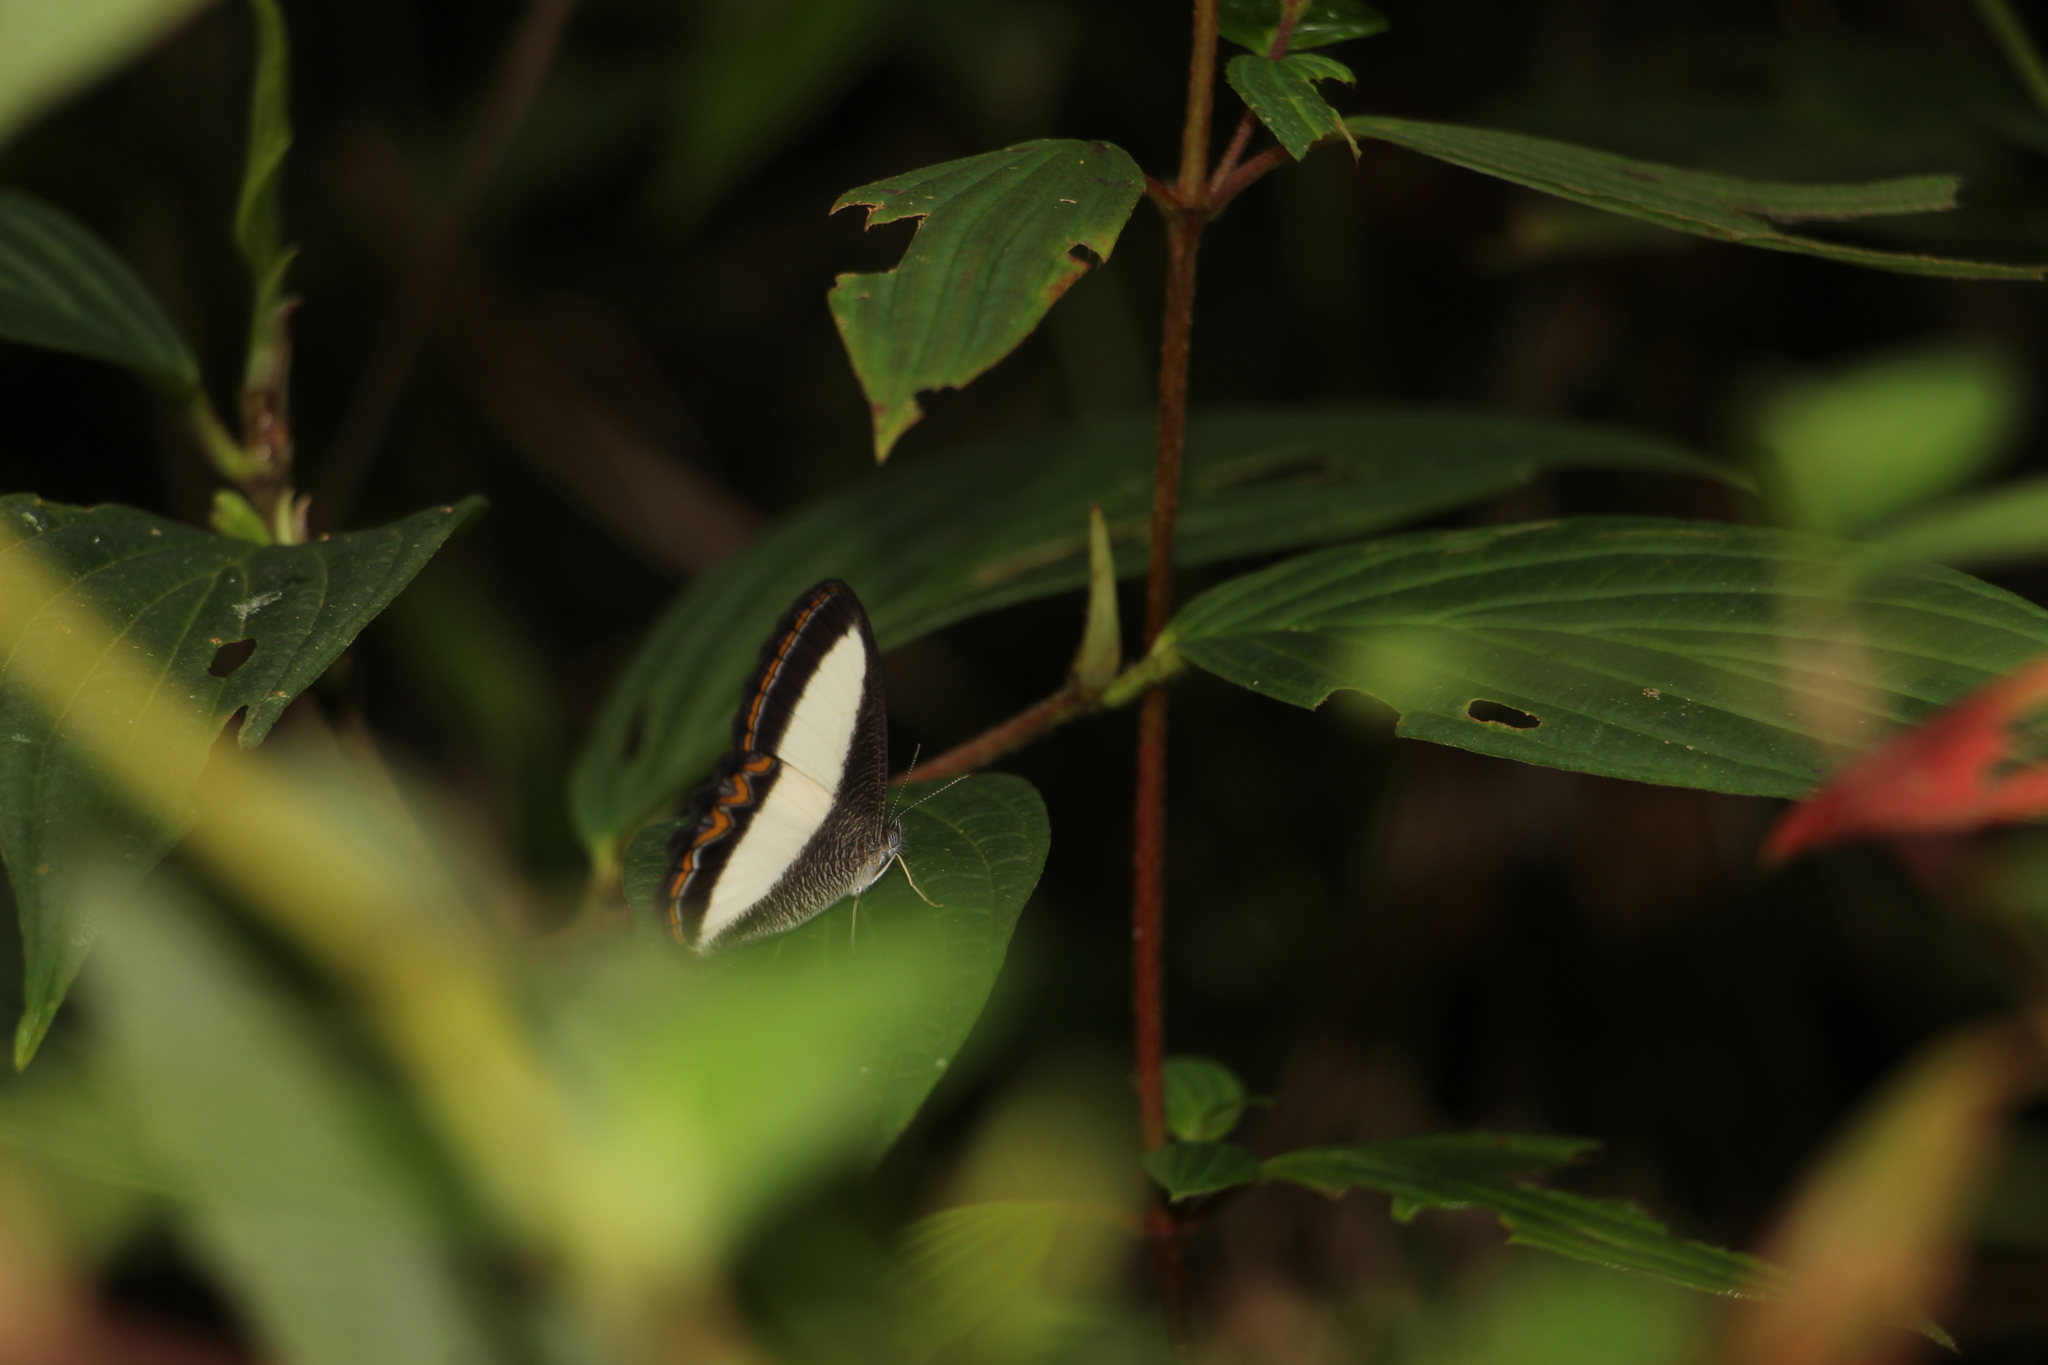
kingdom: Animalia
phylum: Arthropoda
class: Insecta
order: Lepidoptera
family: Nymphalidae
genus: Oressinoma
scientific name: Oressinoma typhla
